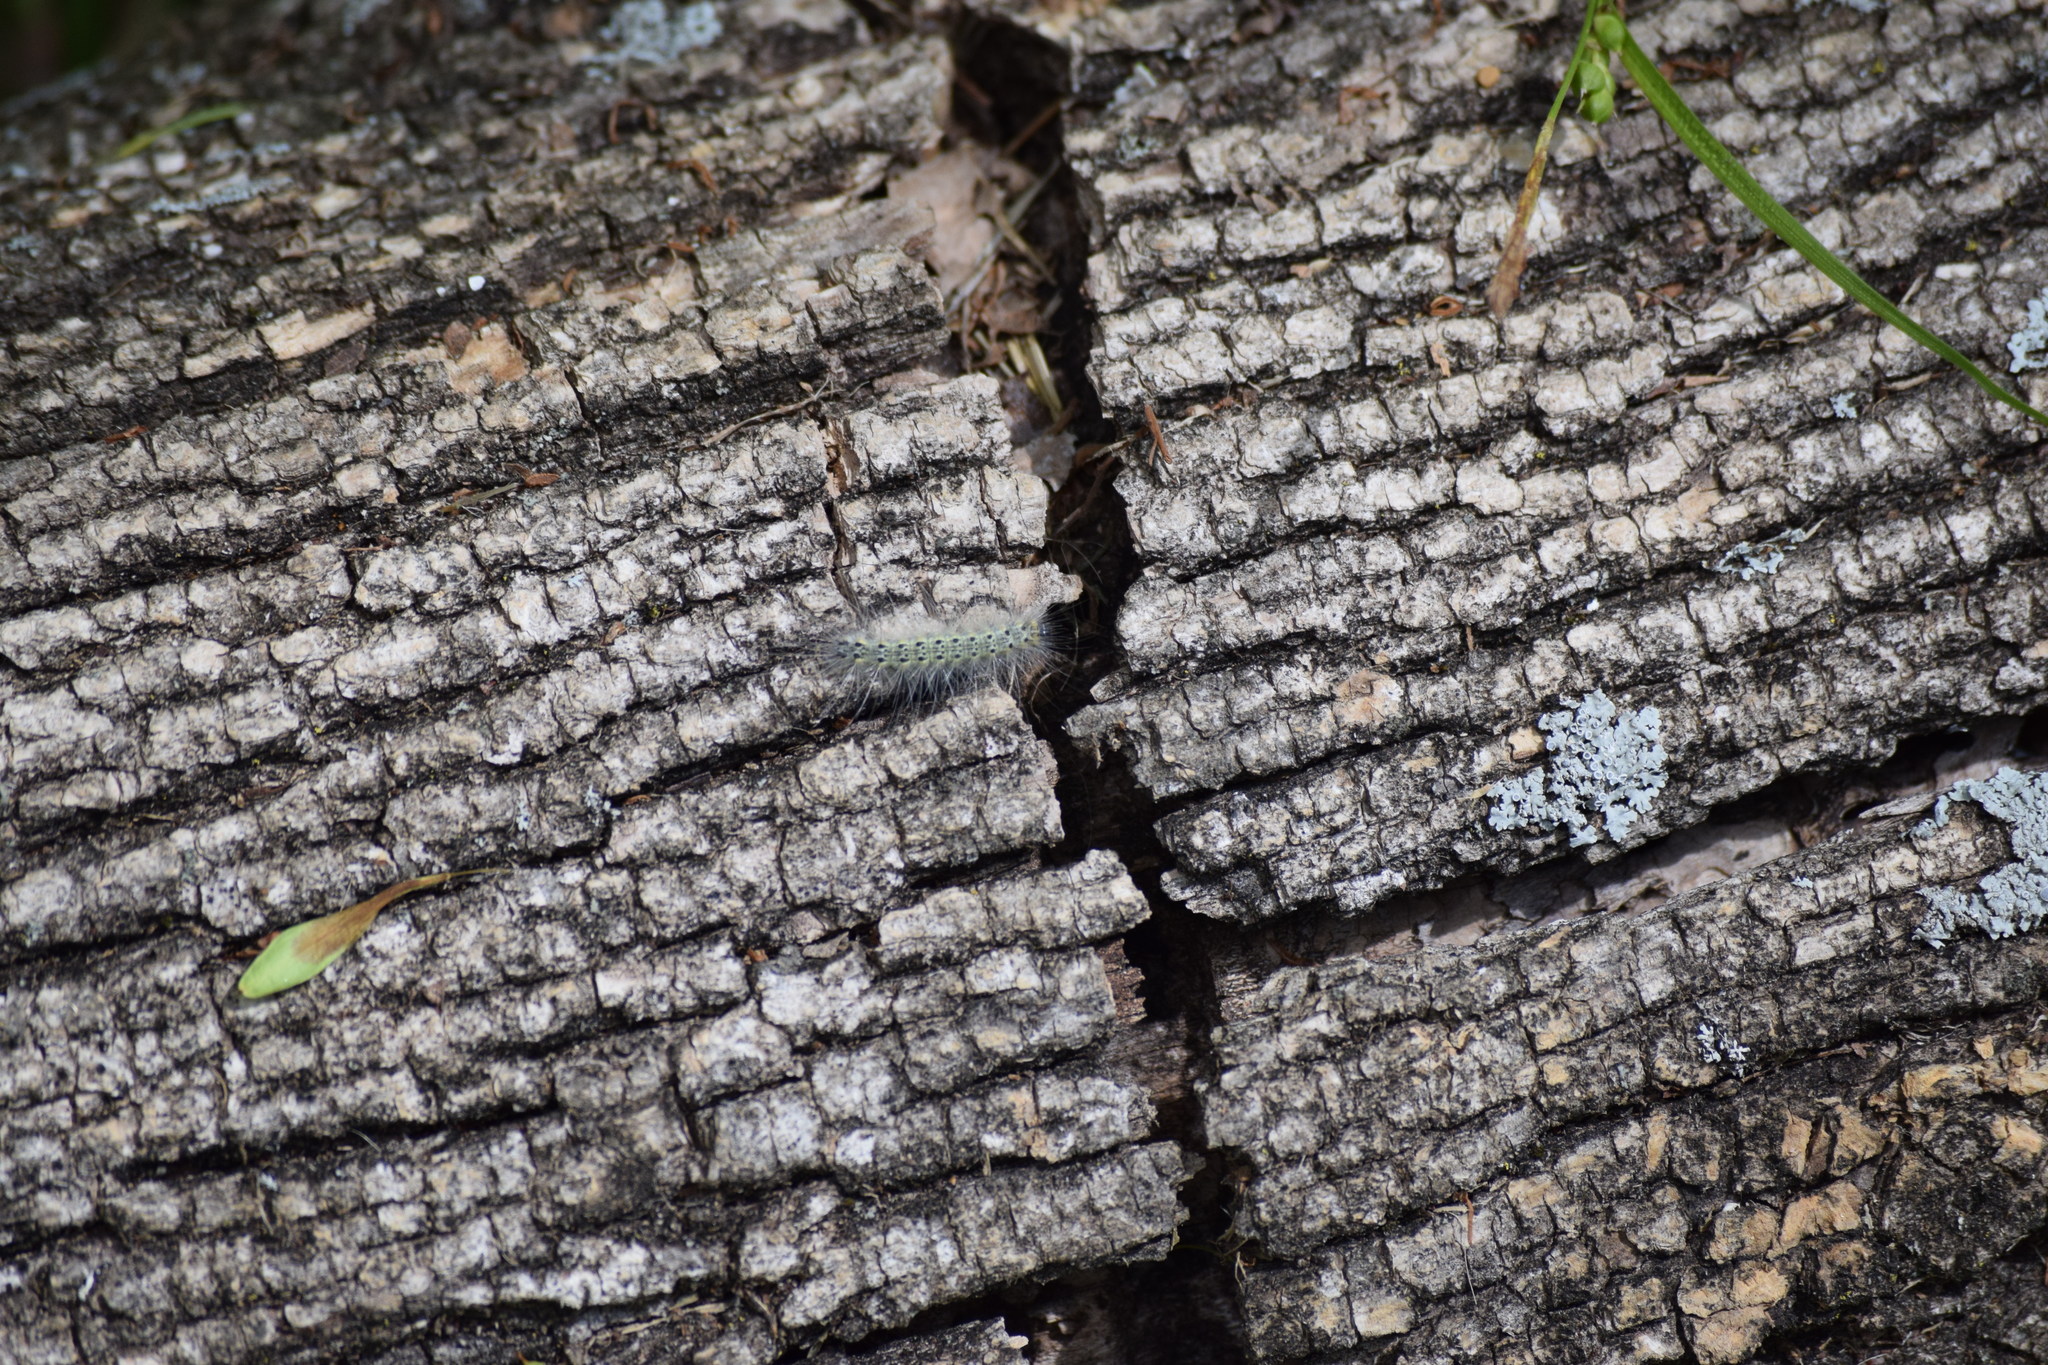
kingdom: Animalia
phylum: Arthropoda
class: Insecta
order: Lepidoptera
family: Erebidae
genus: Hyphantria
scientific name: Hyphantria cunea
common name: American white moth
